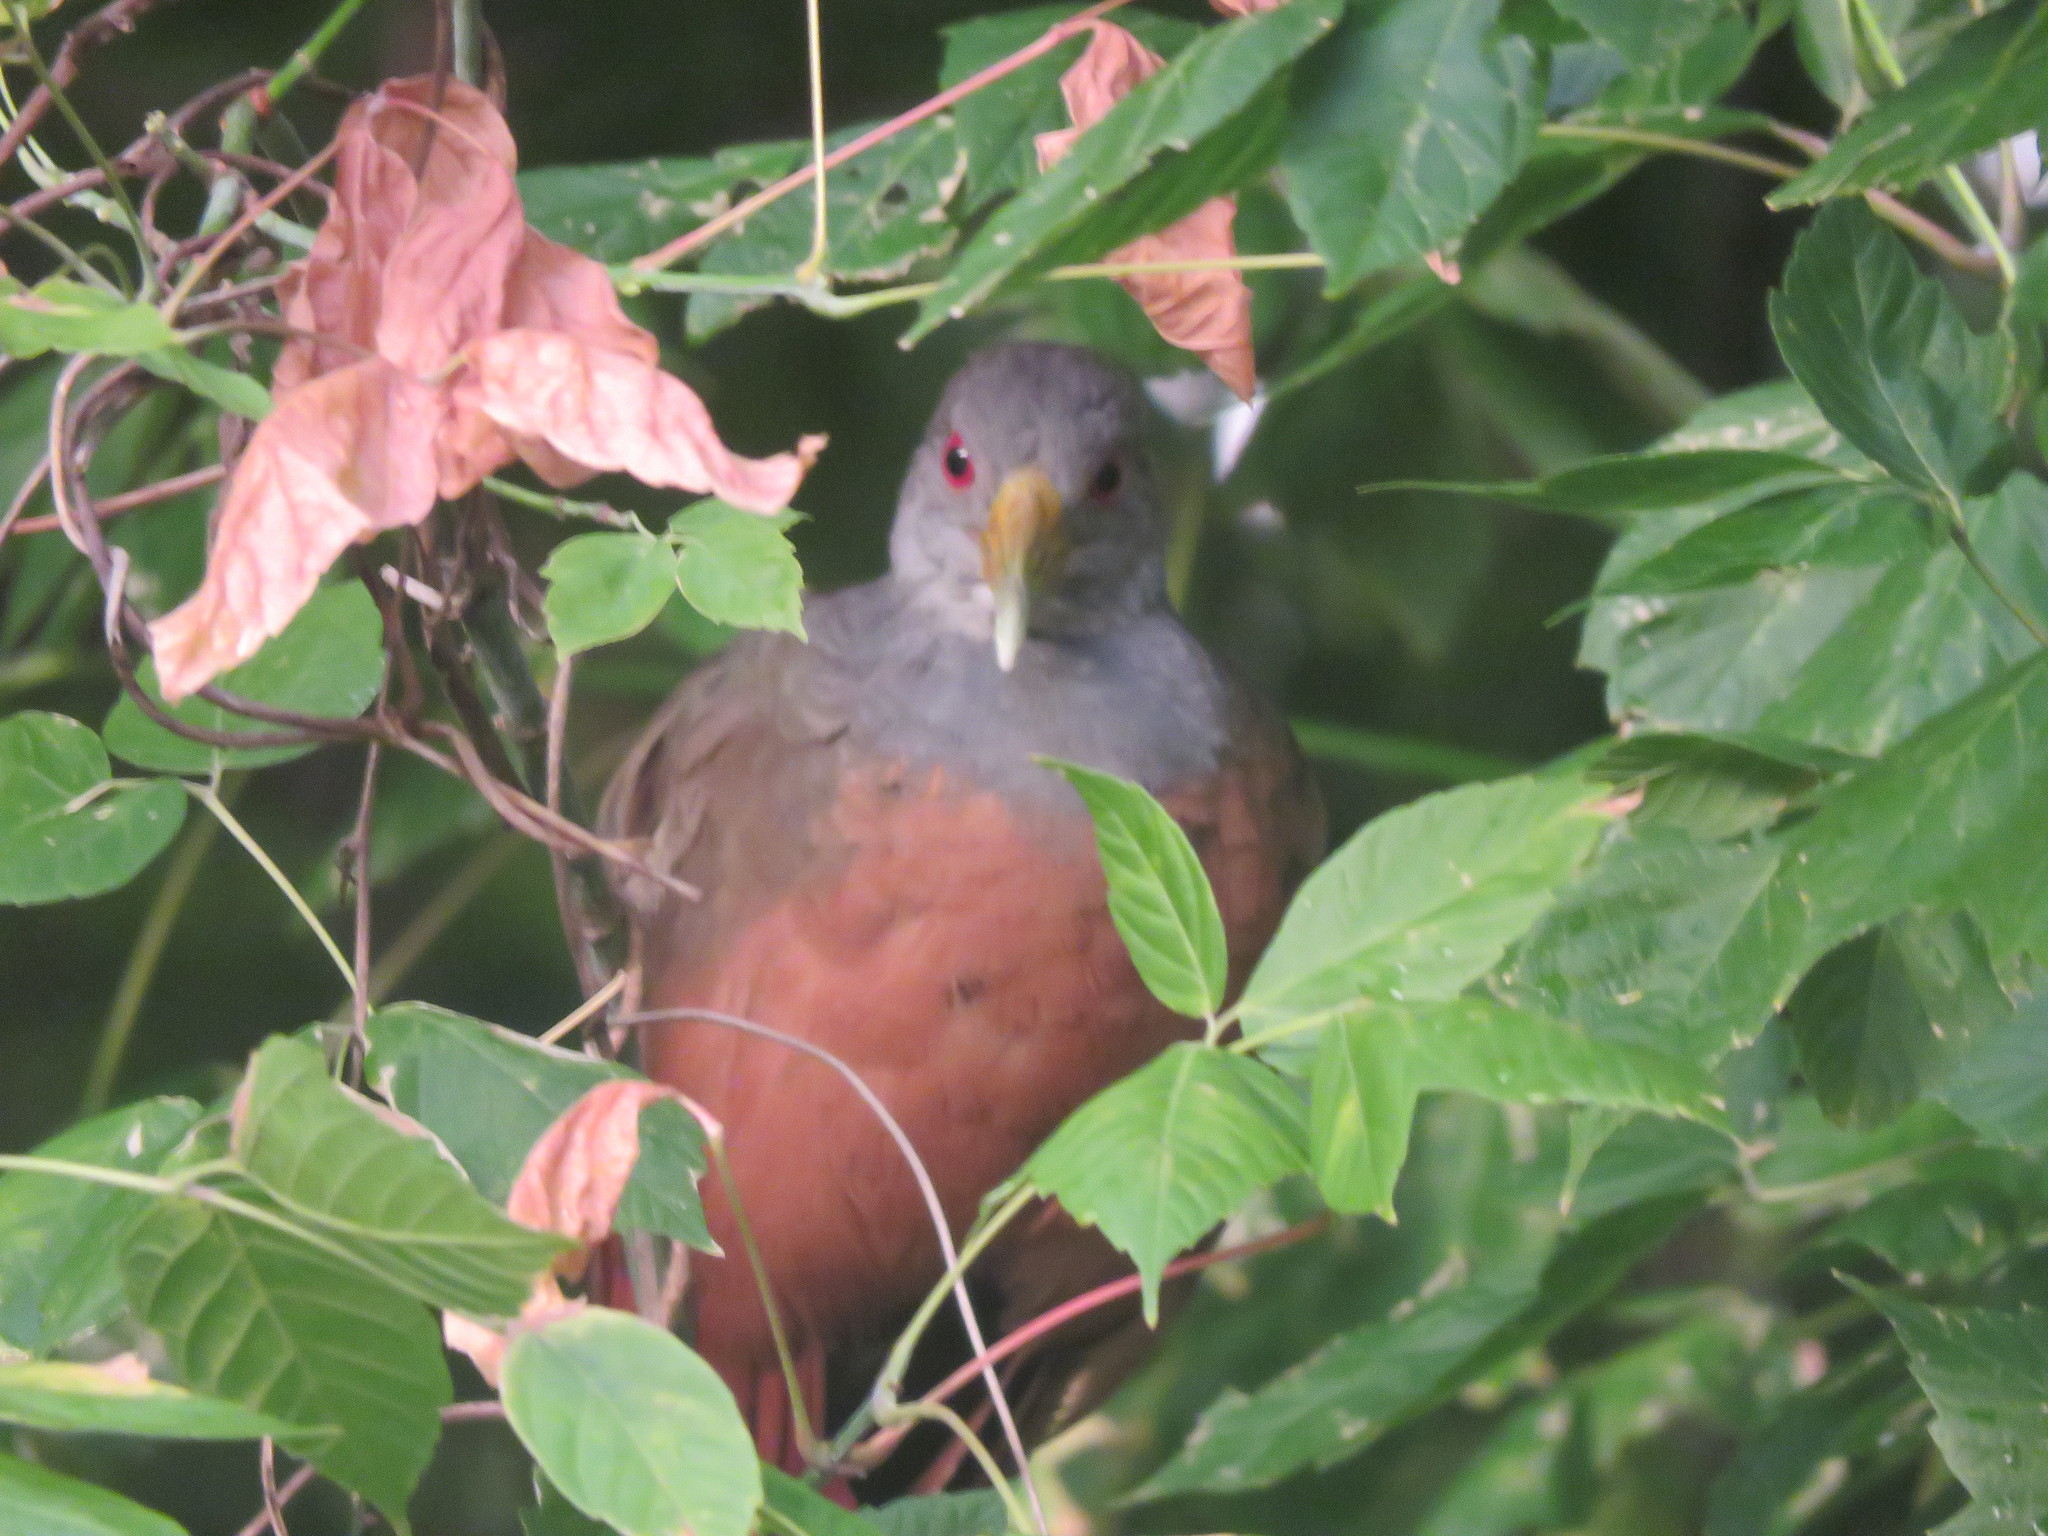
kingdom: Animalia
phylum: Chordata
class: Aves
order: Gruiformes
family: Rallidae
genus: Aramides
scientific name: Aramides cajanea
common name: Gray-necked wood-rail
